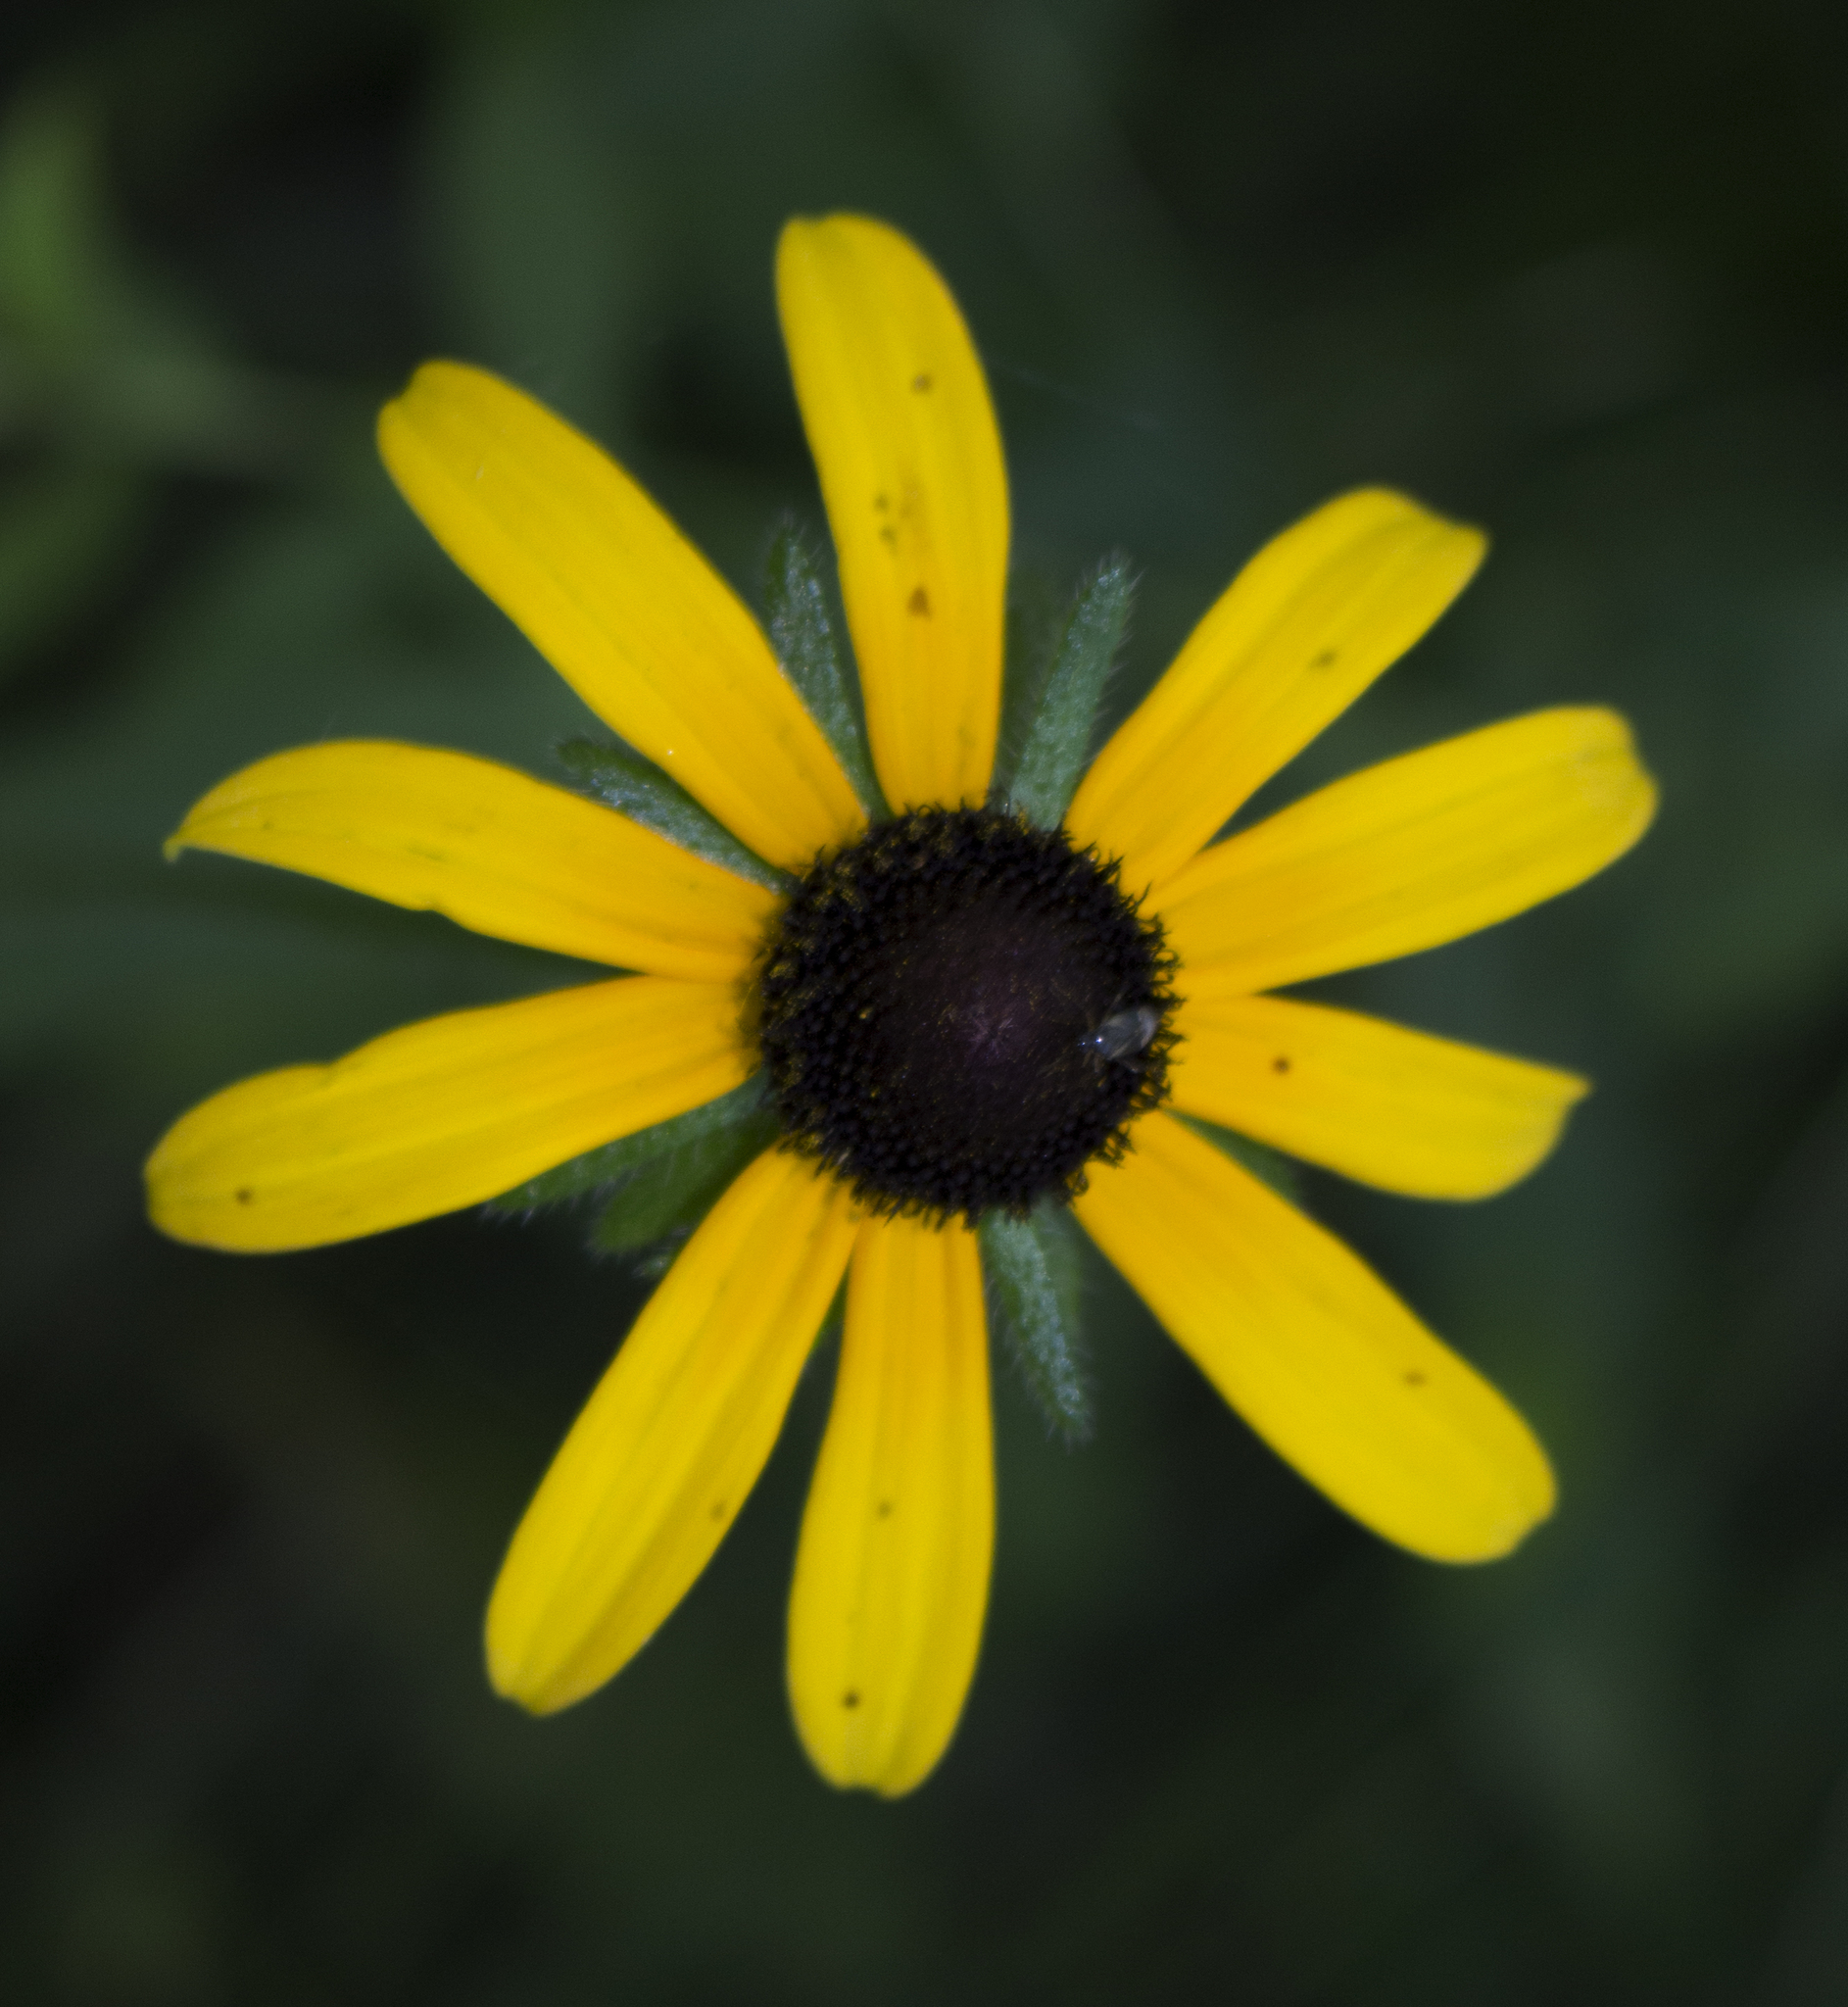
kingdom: Plantae
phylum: Tracheophyta
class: Magnoliopsida
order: Asterales
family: Asteraceae
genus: Rudbeckia
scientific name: Rudbeckia hirta
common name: Black-eyed-susan
